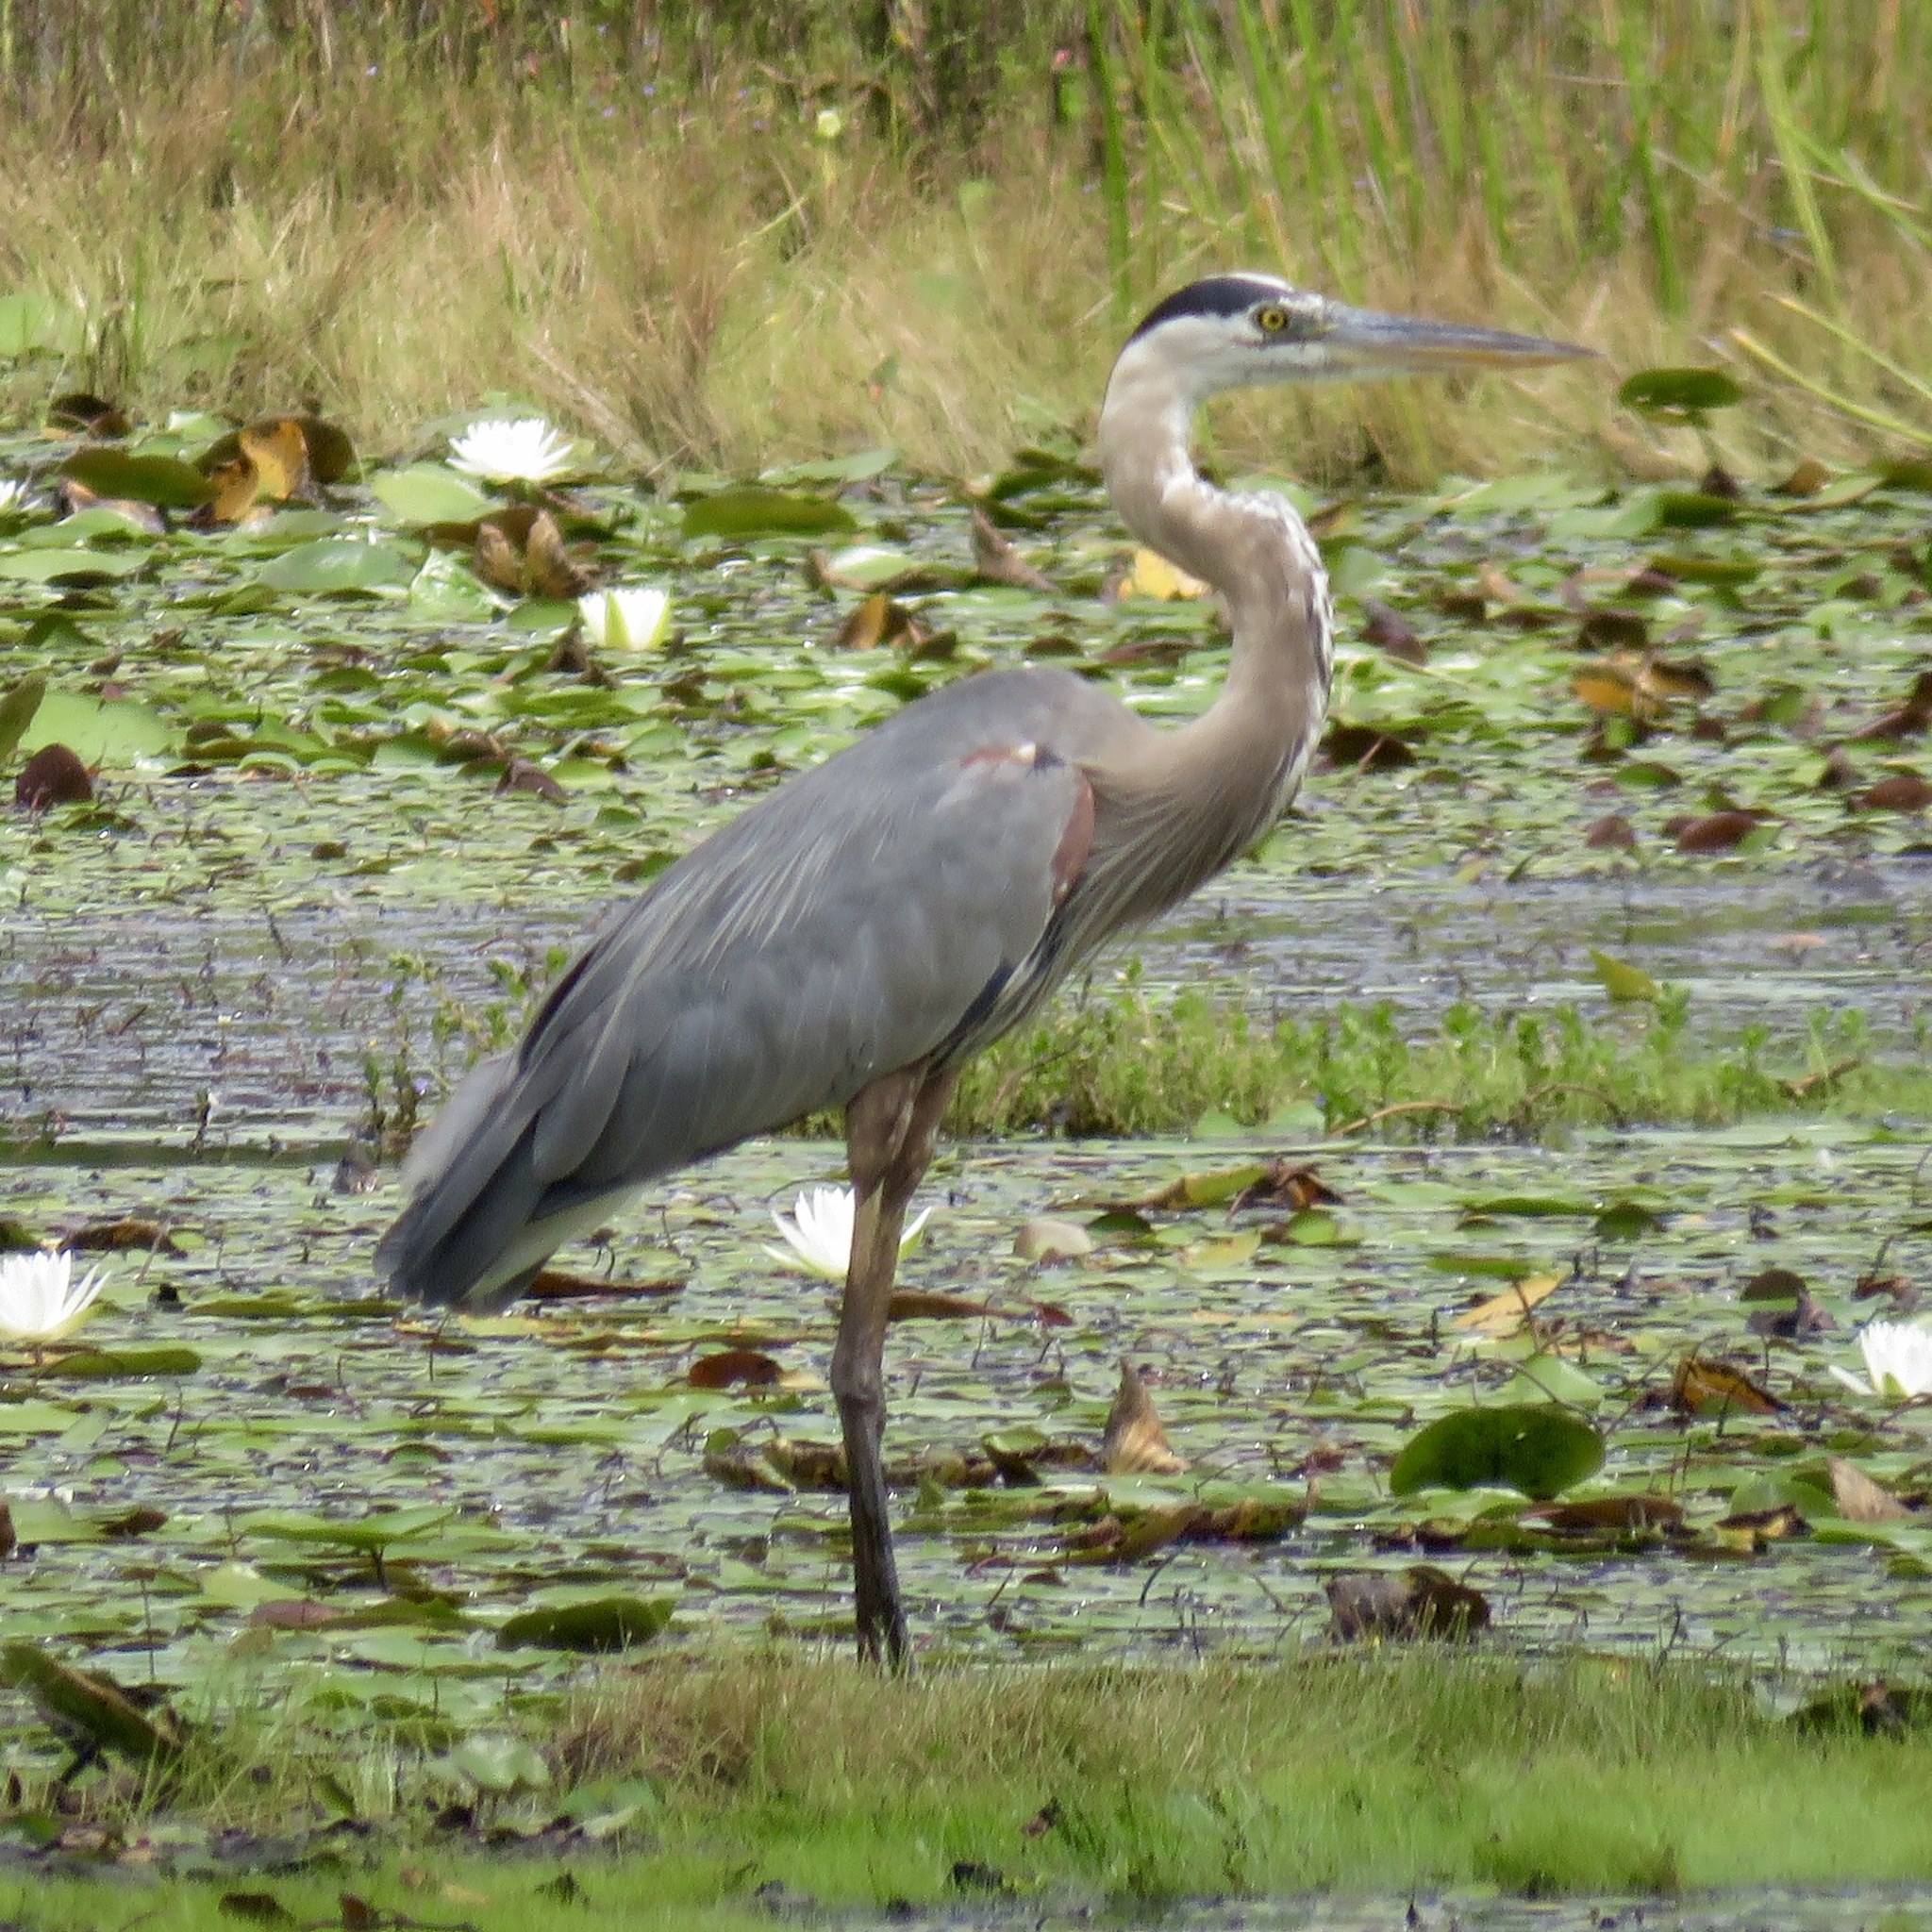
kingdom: Animalia
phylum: Chordata
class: Aves
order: Pelecaniformes
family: Ardeidae
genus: Ardea
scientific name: Ardea herodias
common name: Great blue heron
